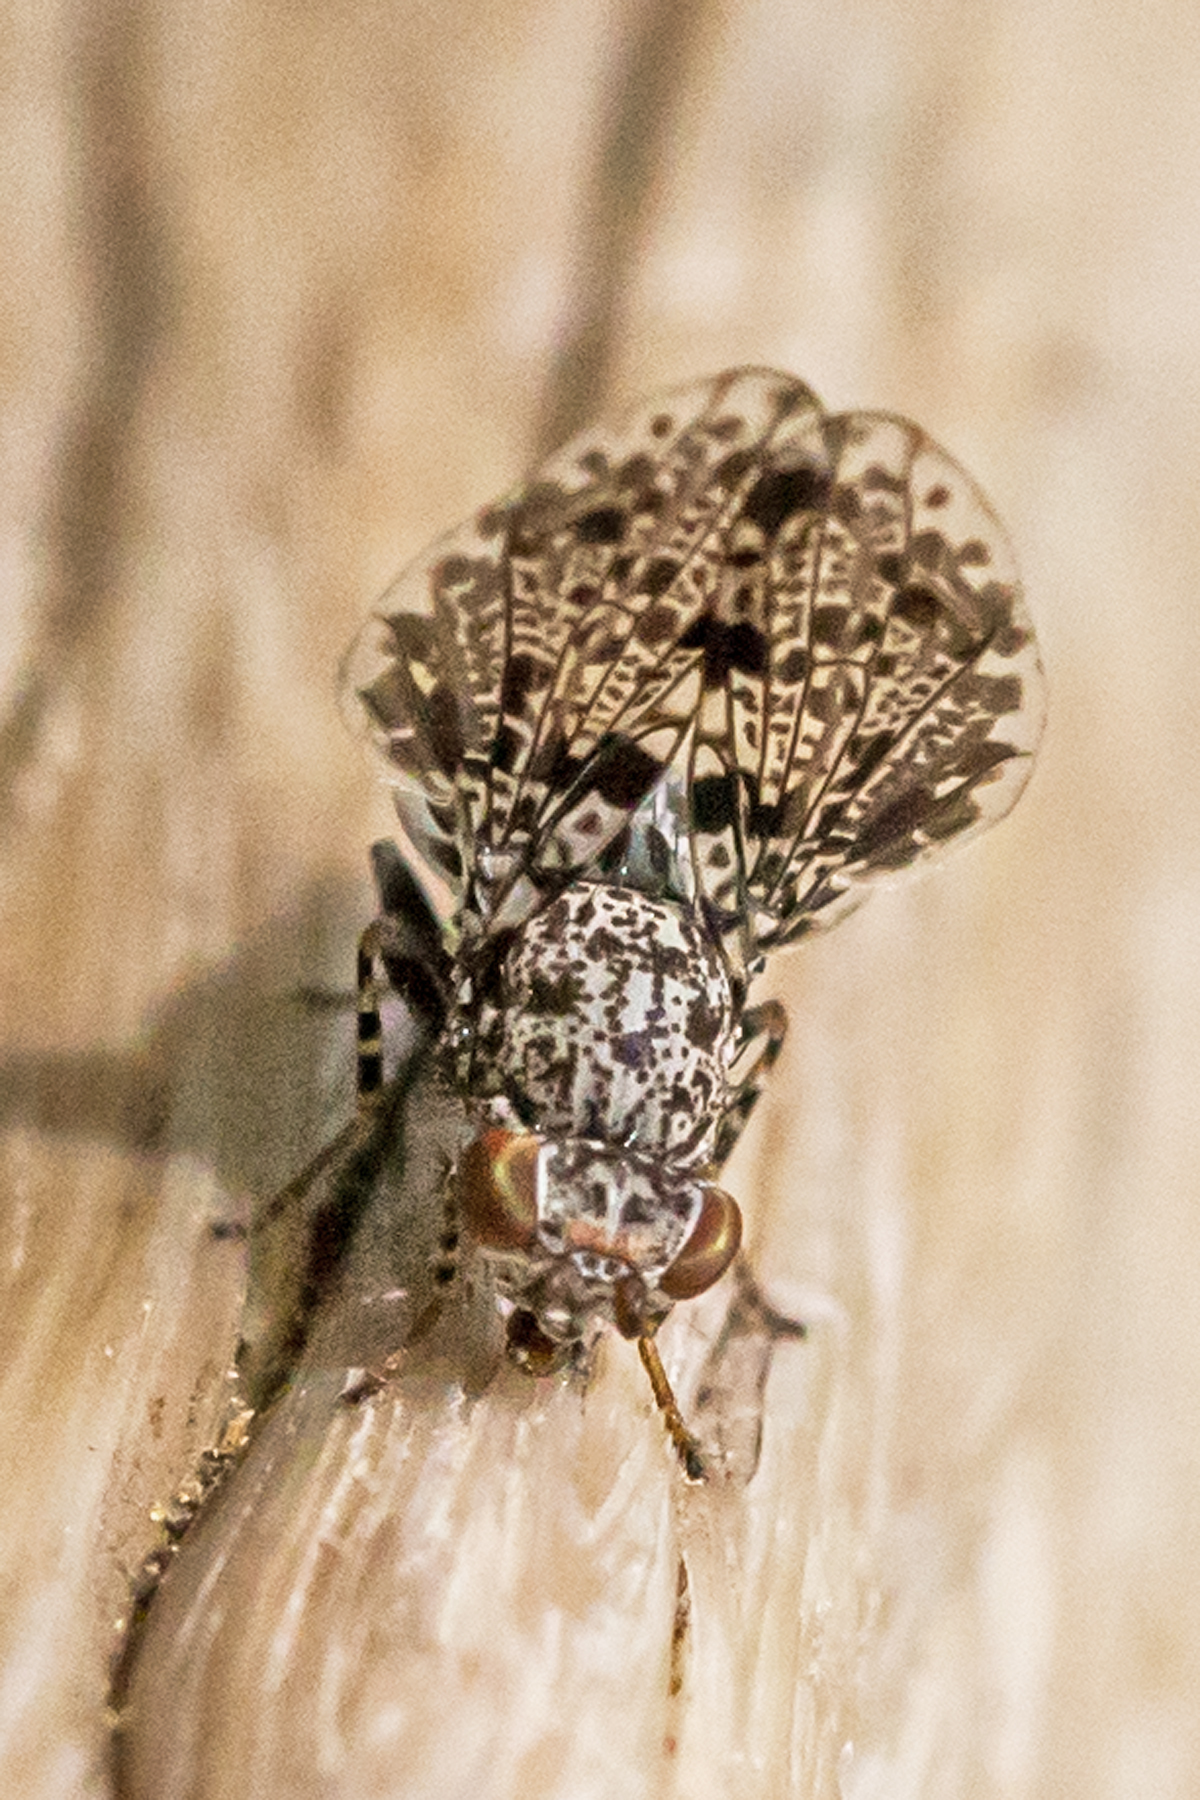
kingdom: Animalia
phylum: Arthropoda
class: Insecta
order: Diptera
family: Ulidiidae
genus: Callopistromyia
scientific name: Callopistromyia annulipes
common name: Peacock fly
